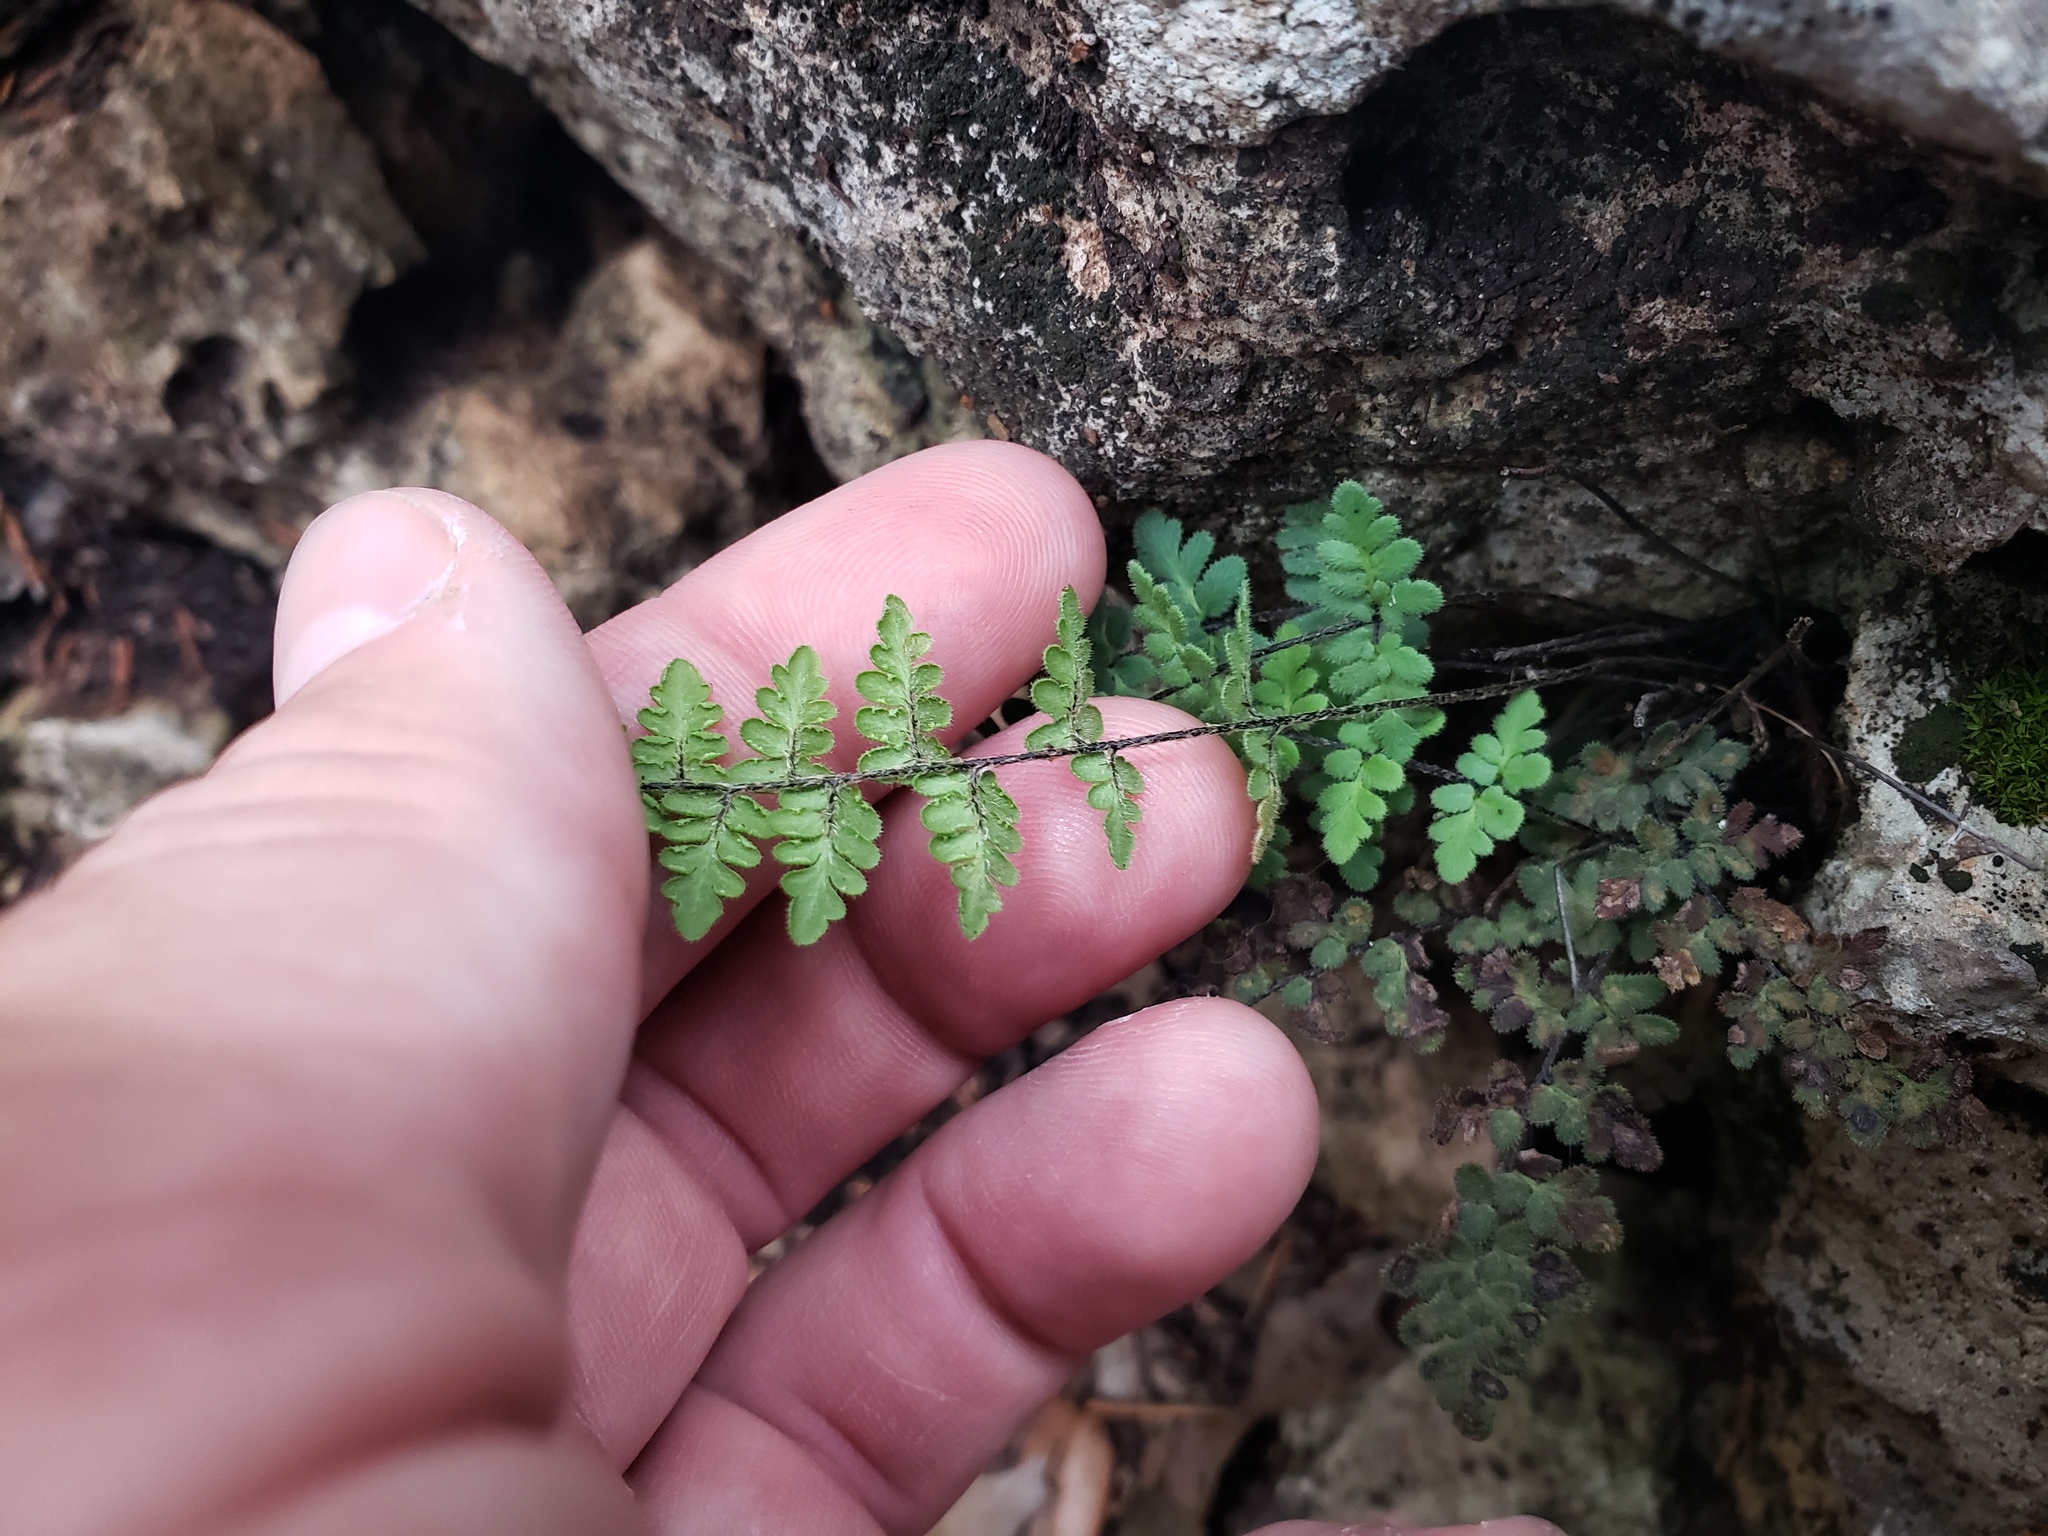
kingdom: Plantae
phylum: Tracheophyta
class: Polypodiopsida
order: Polypodiales
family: Pteridaceae
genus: Myriopteris
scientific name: Myriopteris scabra
